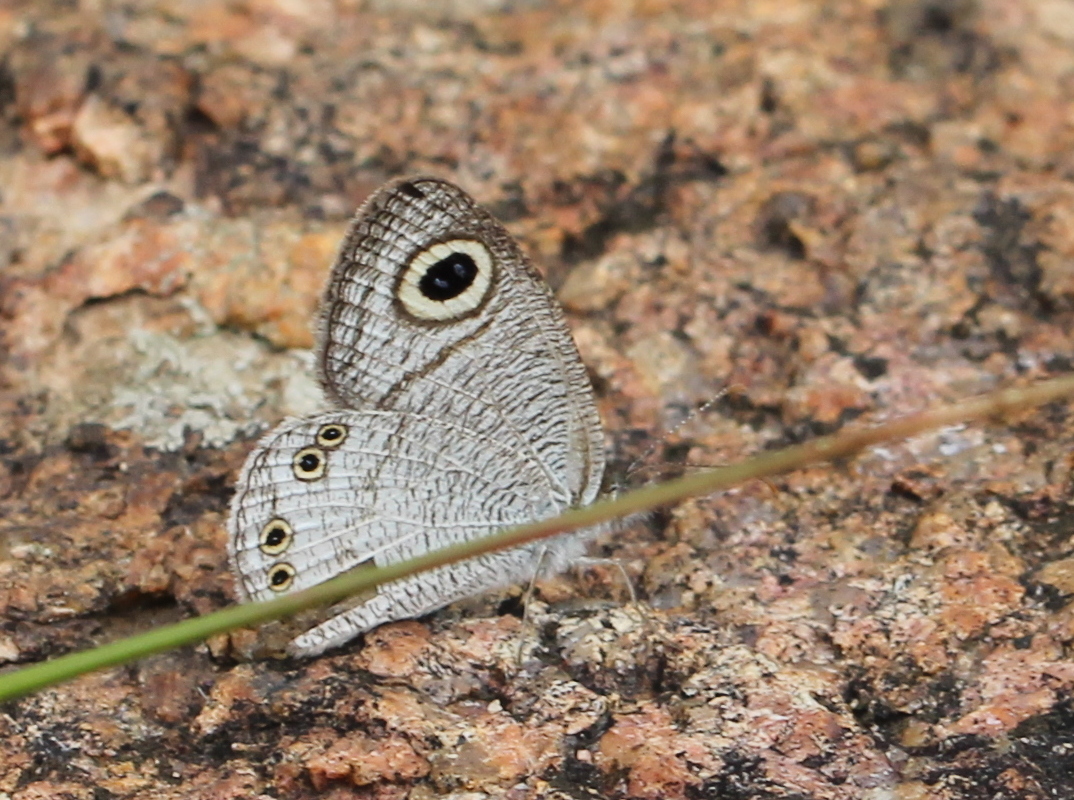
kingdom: Animalia
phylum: Arthropoda
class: Insecta
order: Lepidoptera
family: Nymphalidae
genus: Ypthima
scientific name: Ypthima avanta
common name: Jewel five-ring
